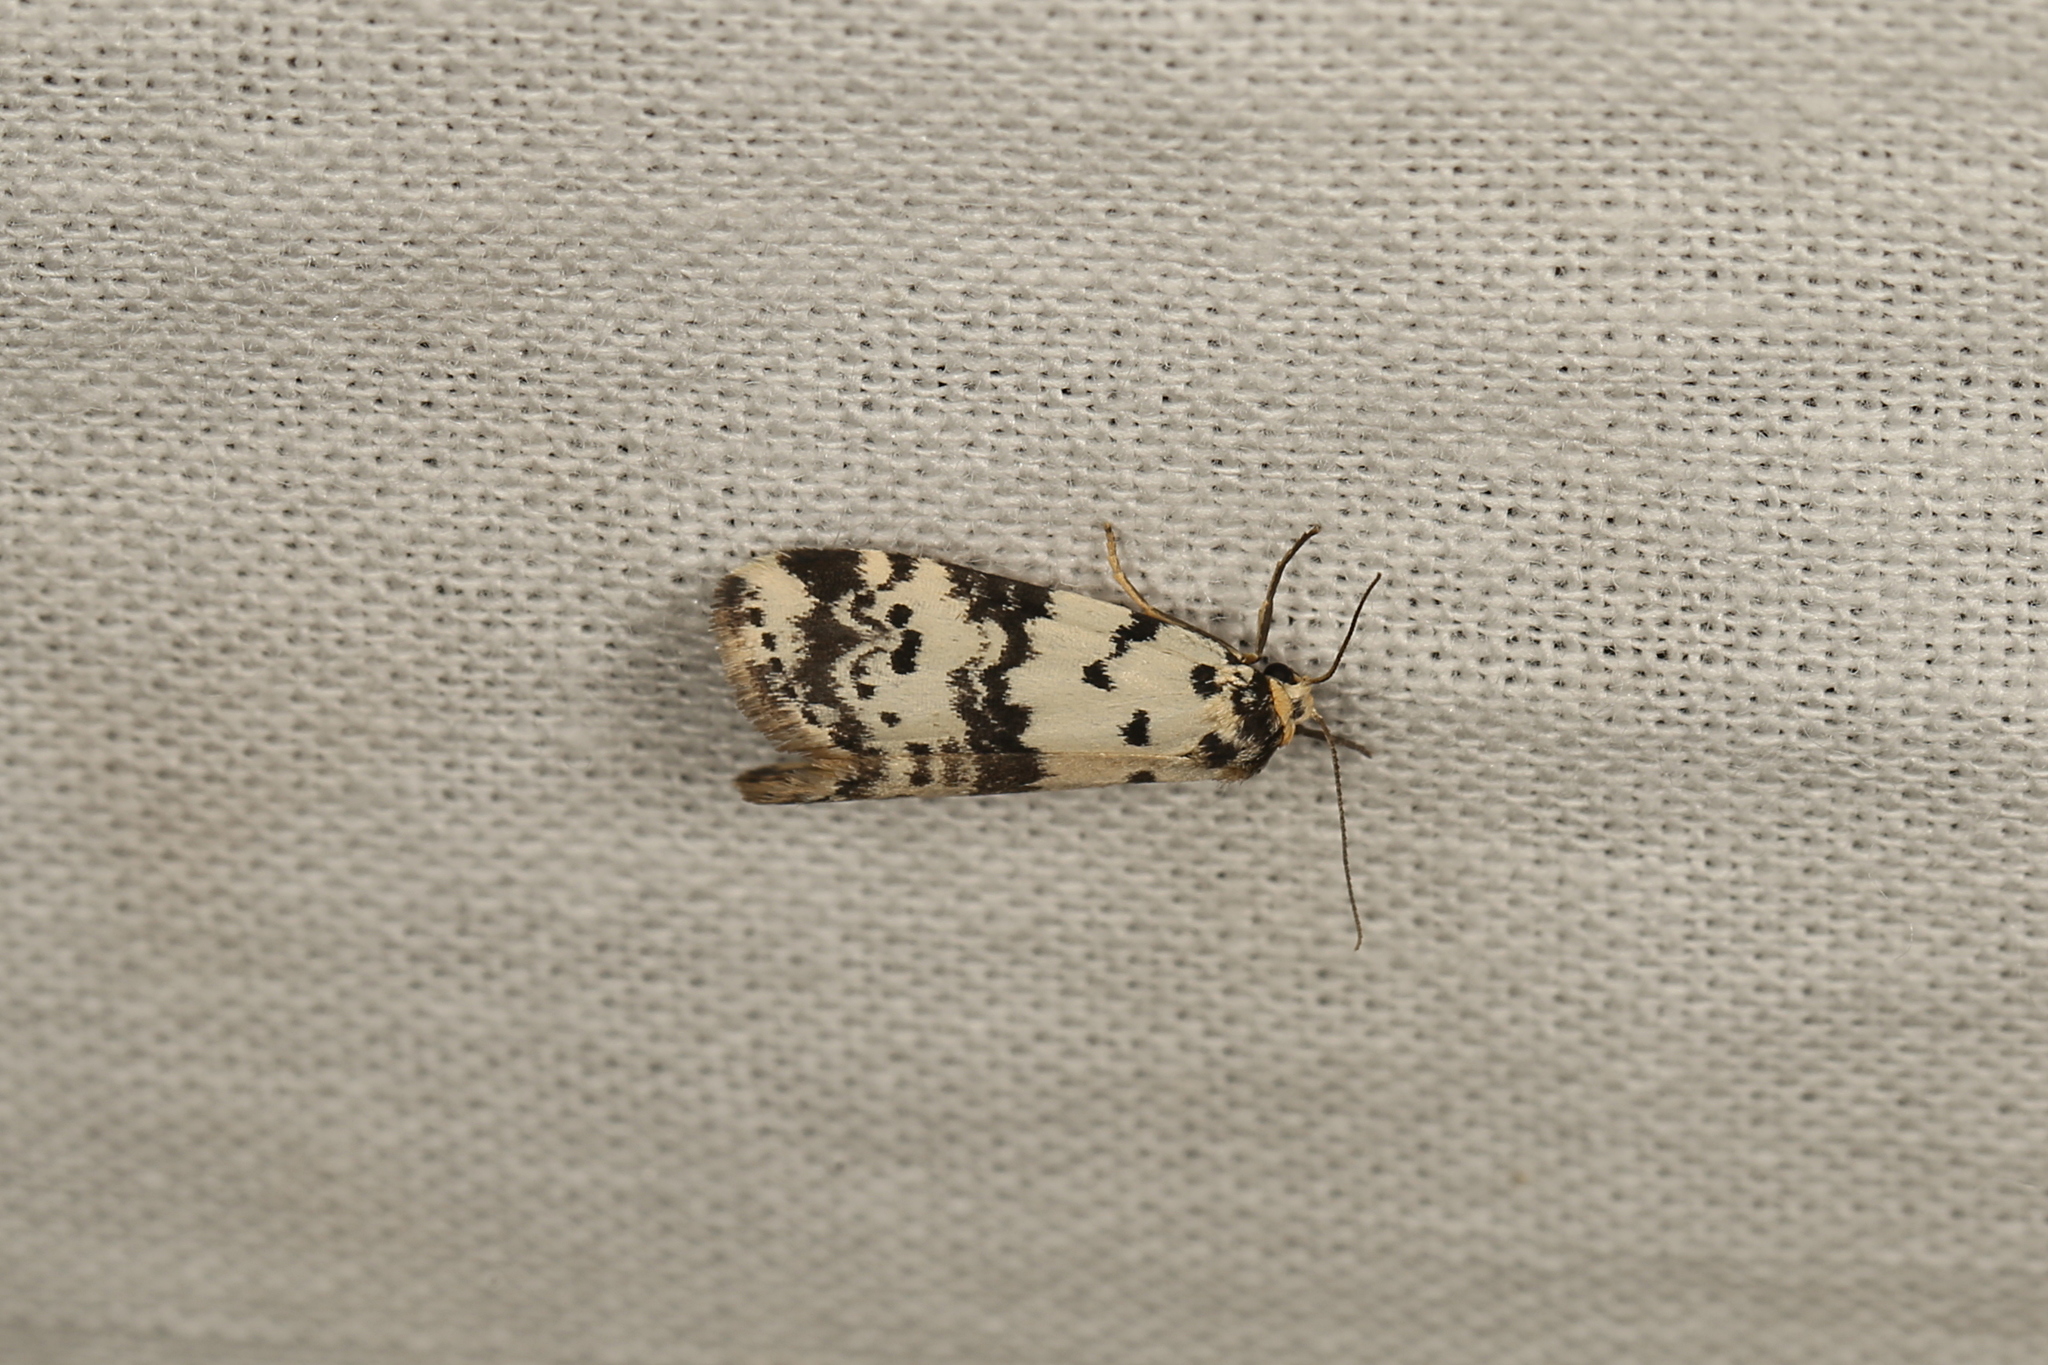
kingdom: Animalia
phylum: Arthropoda
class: Insecta
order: Lepidoptera
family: Erebidae
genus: Thallarcha
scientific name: Thallarcha rhaptophora
